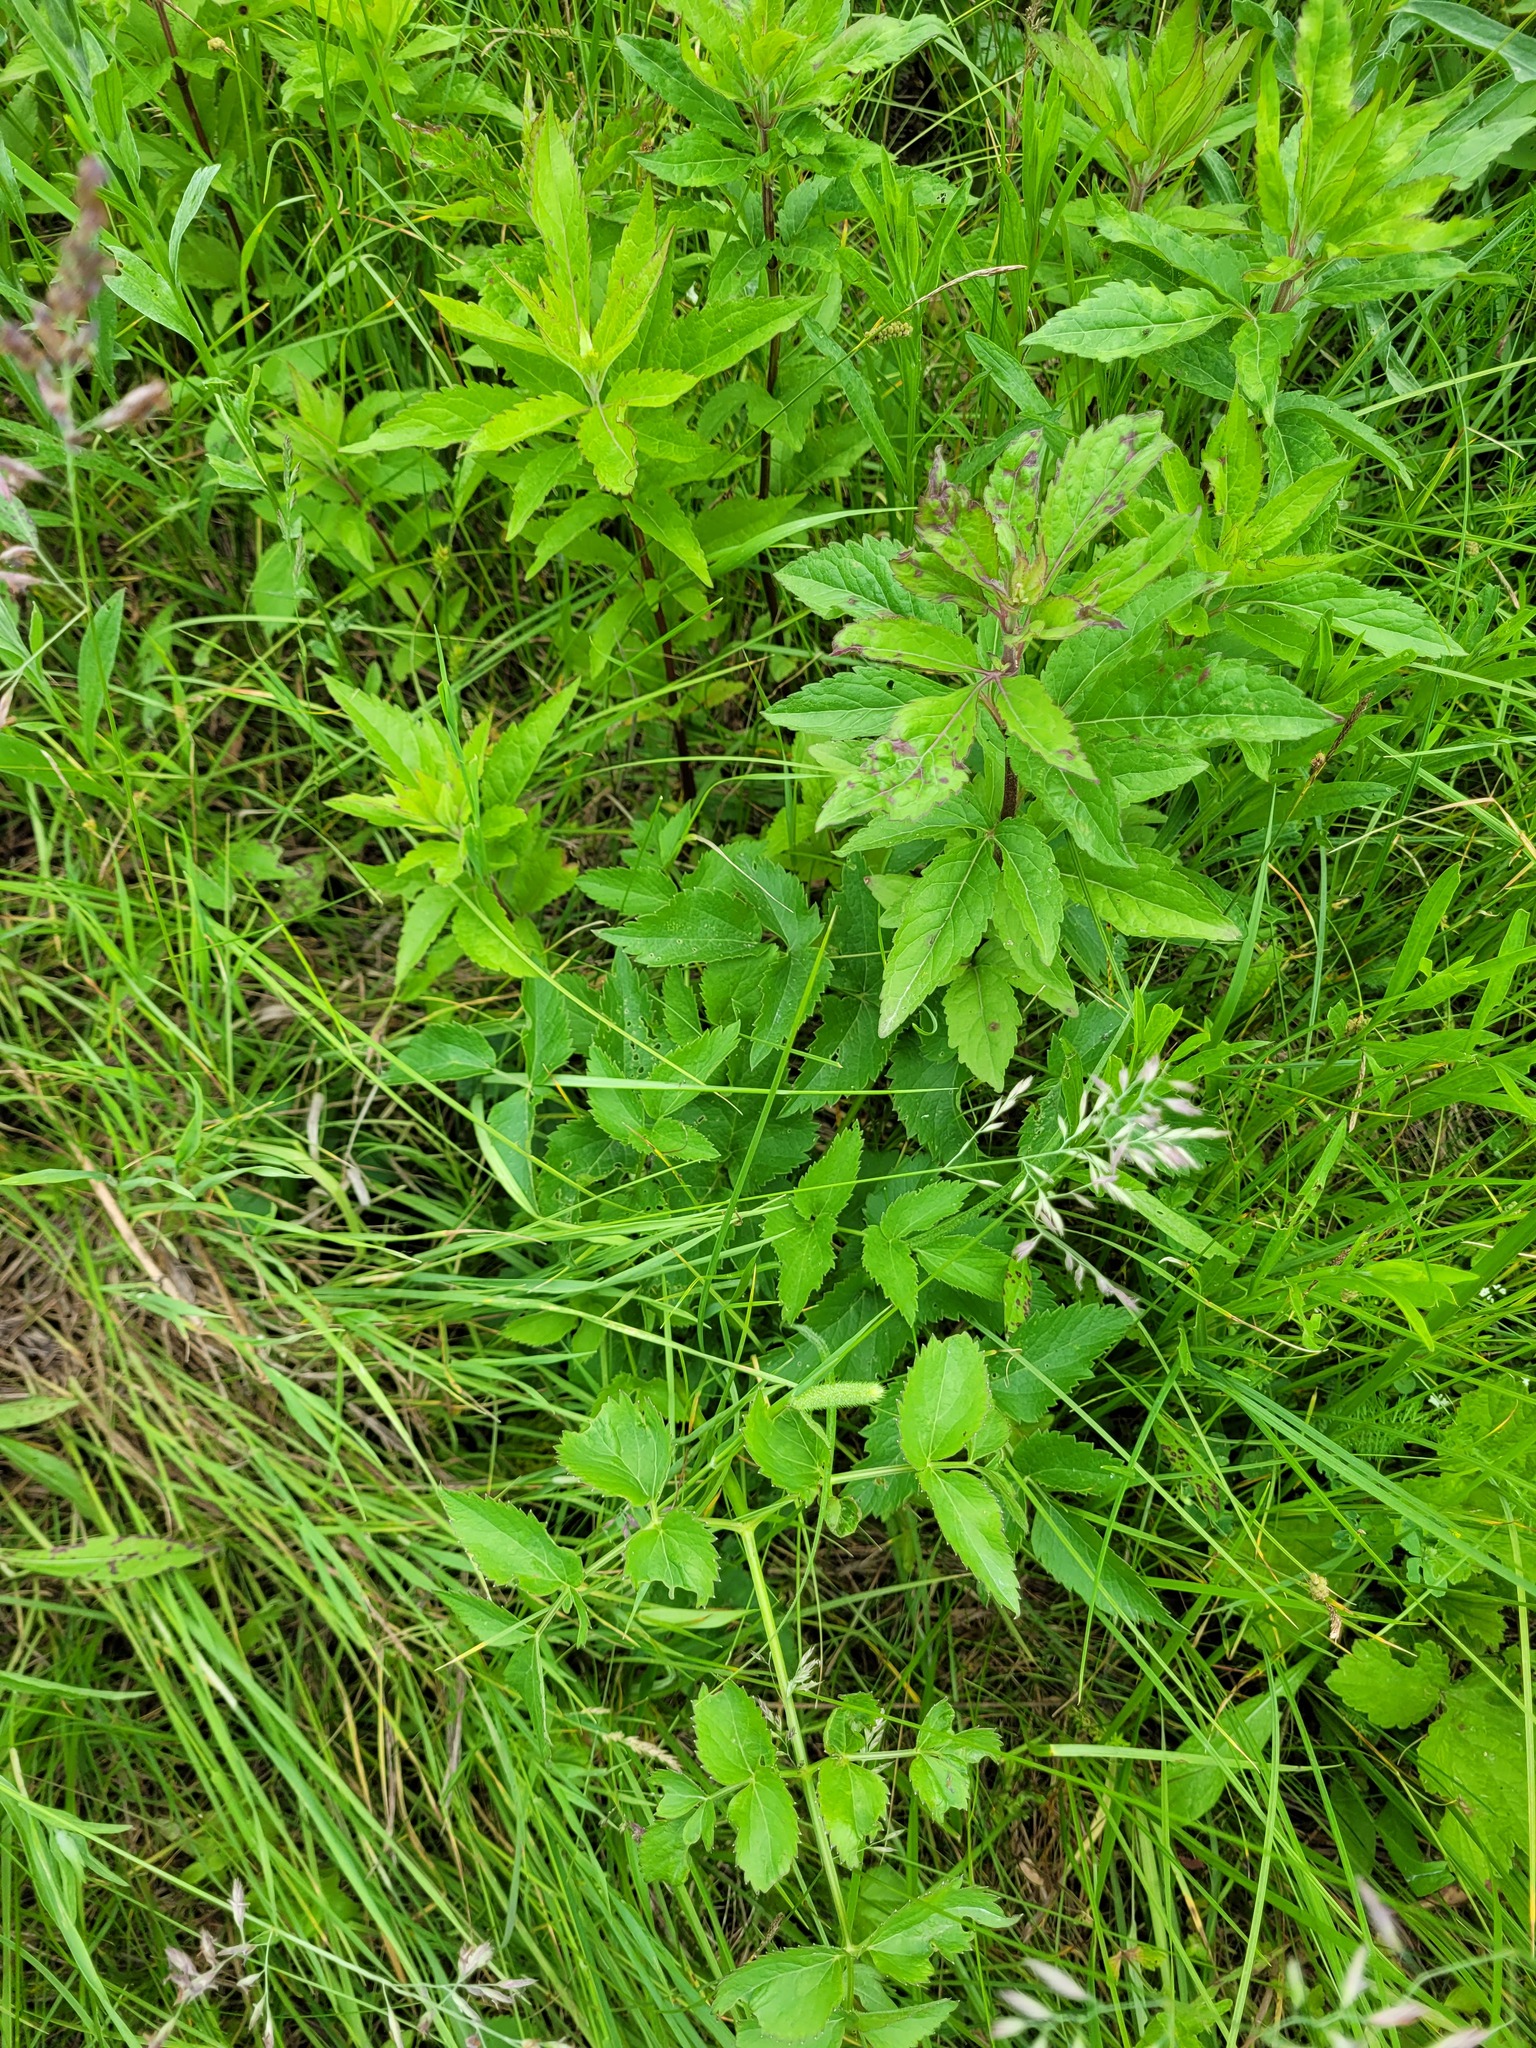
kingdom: Plantae
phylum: Tracheophyta
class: Magnoliopsida
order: Asterales
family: Asteraceae
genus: Eupatorium
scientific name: Eupatorium cannabinum
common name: Hemp-agrimony
